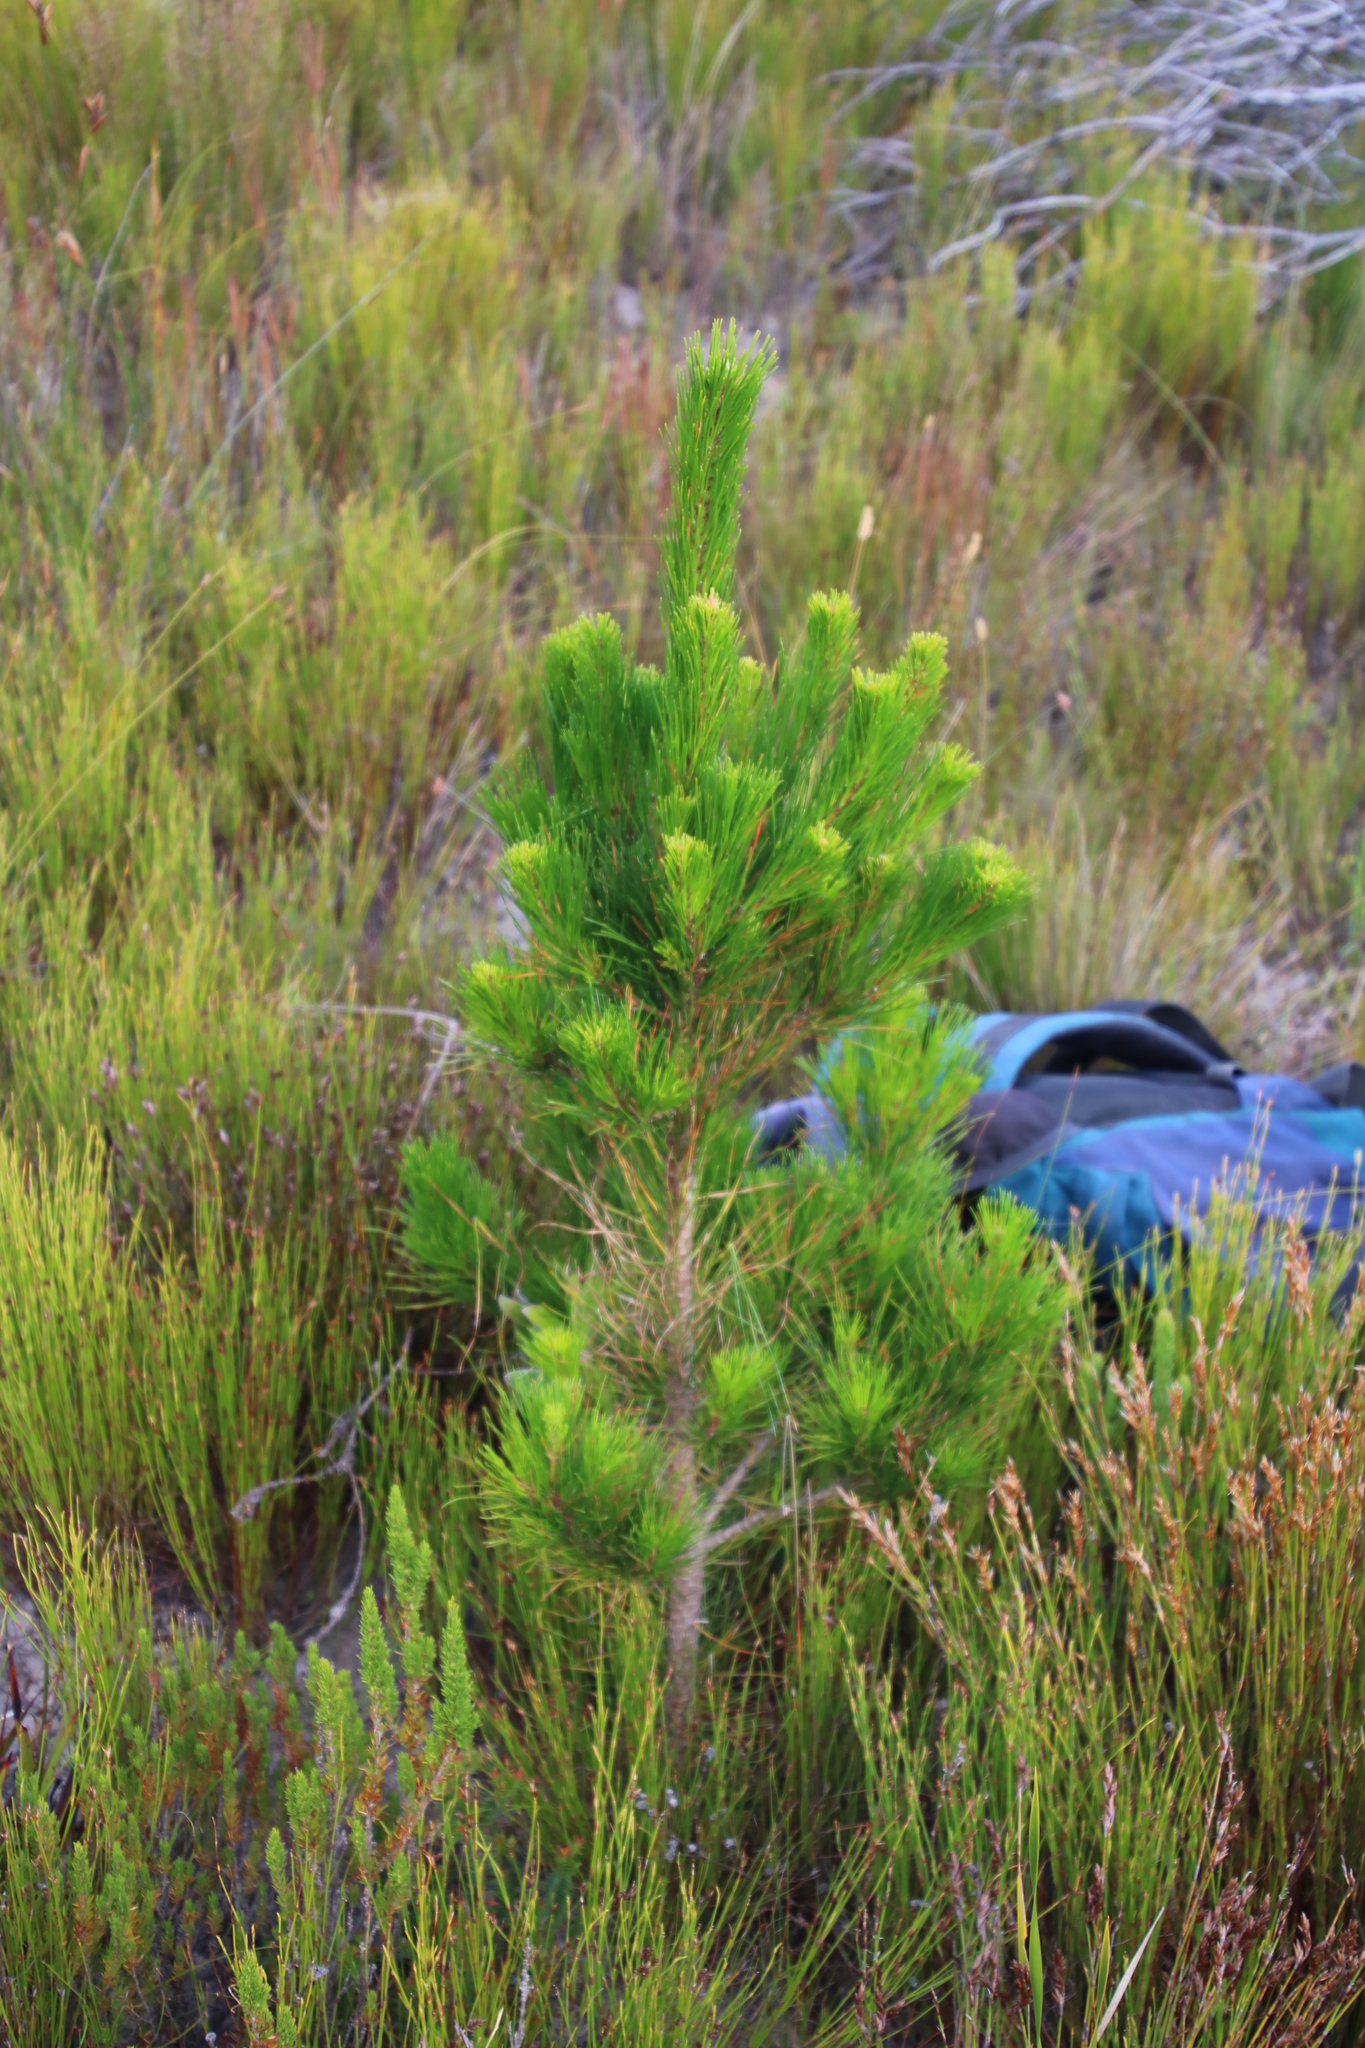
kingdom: Plantae
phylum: Tracheophyta
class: Pinopsida
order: Pinales
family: Pinaceae
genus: Pinus
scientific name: Pinus radiata
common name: Monterey pine
